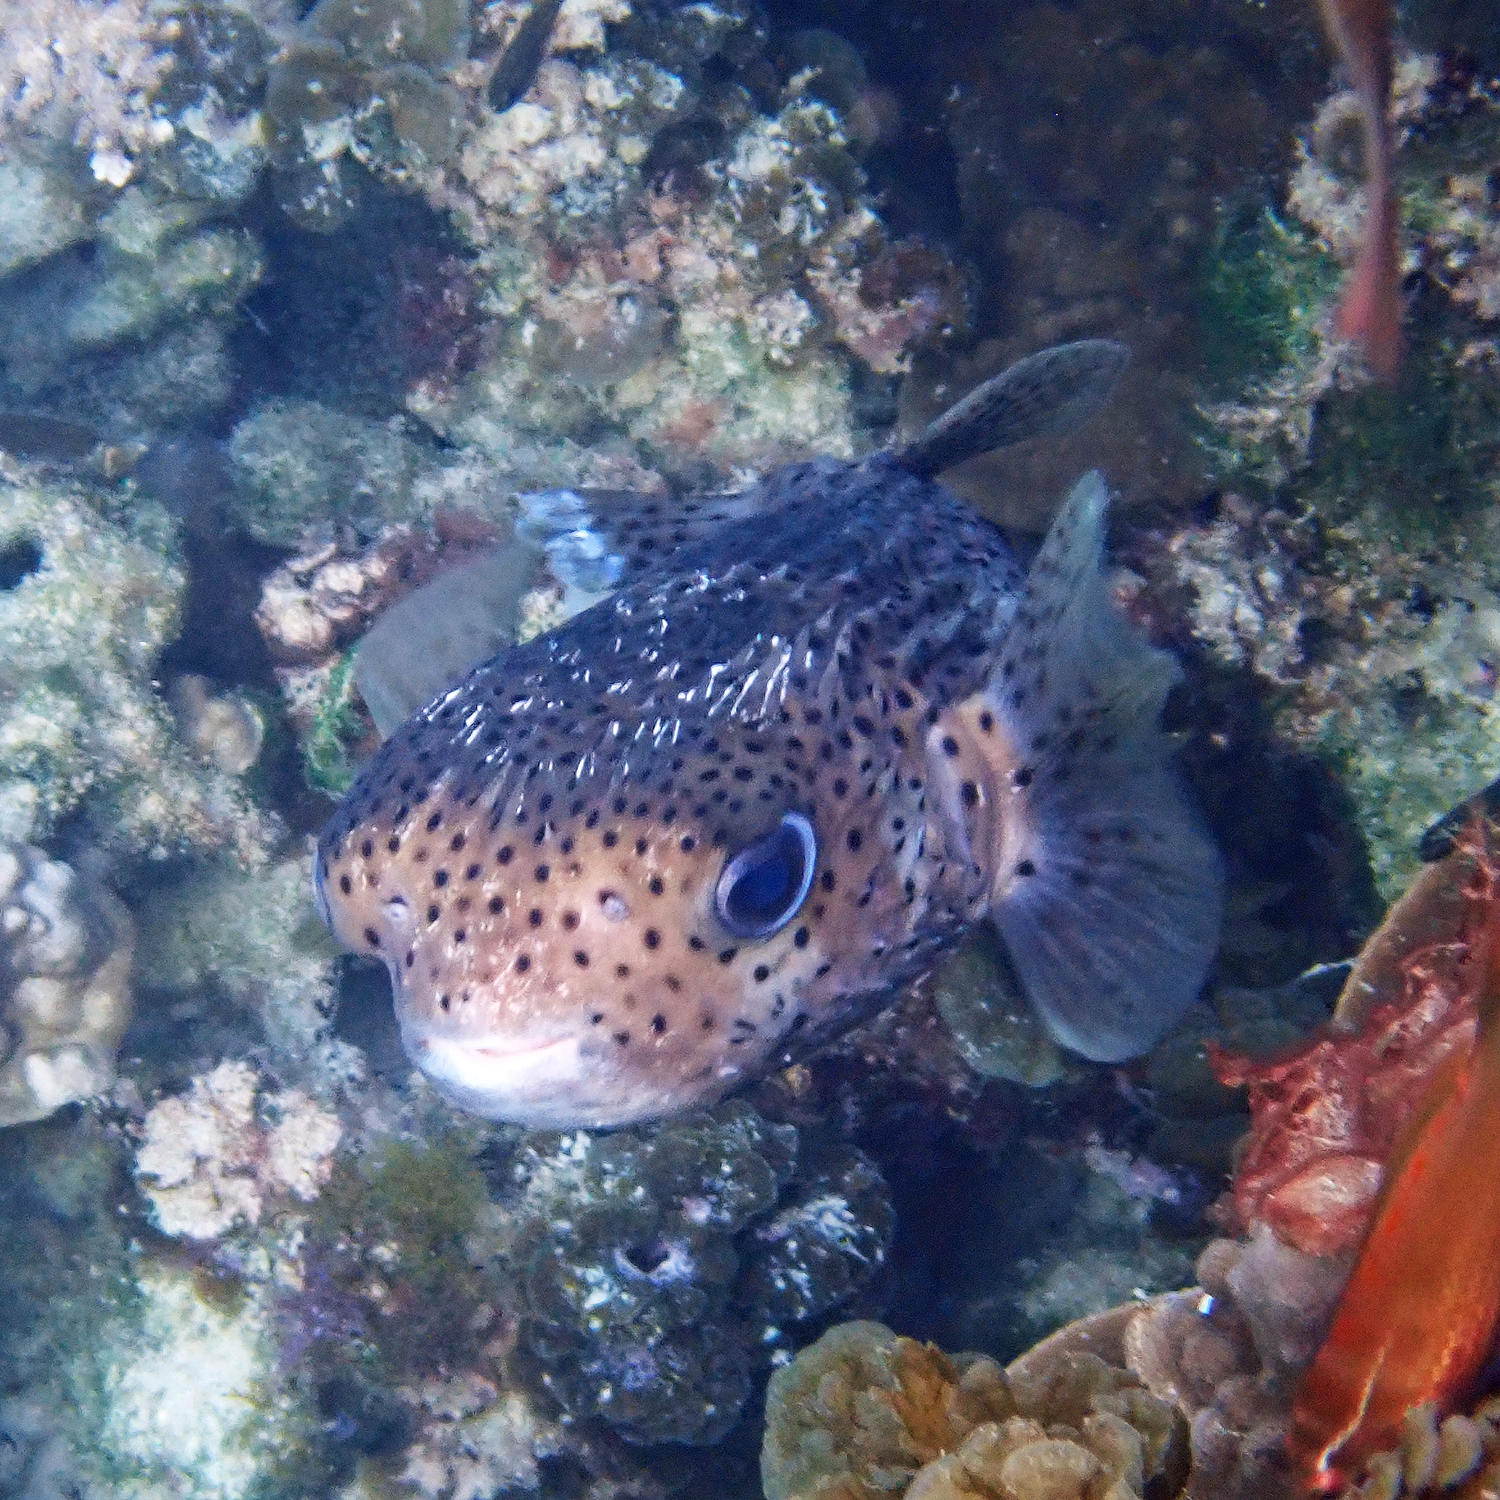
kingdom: Animalia
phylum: Chordata
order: Tetraodontiformes
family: Diodontidae
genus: Diodon
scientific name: Diodon hystrix
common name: Giant porcupinefish
